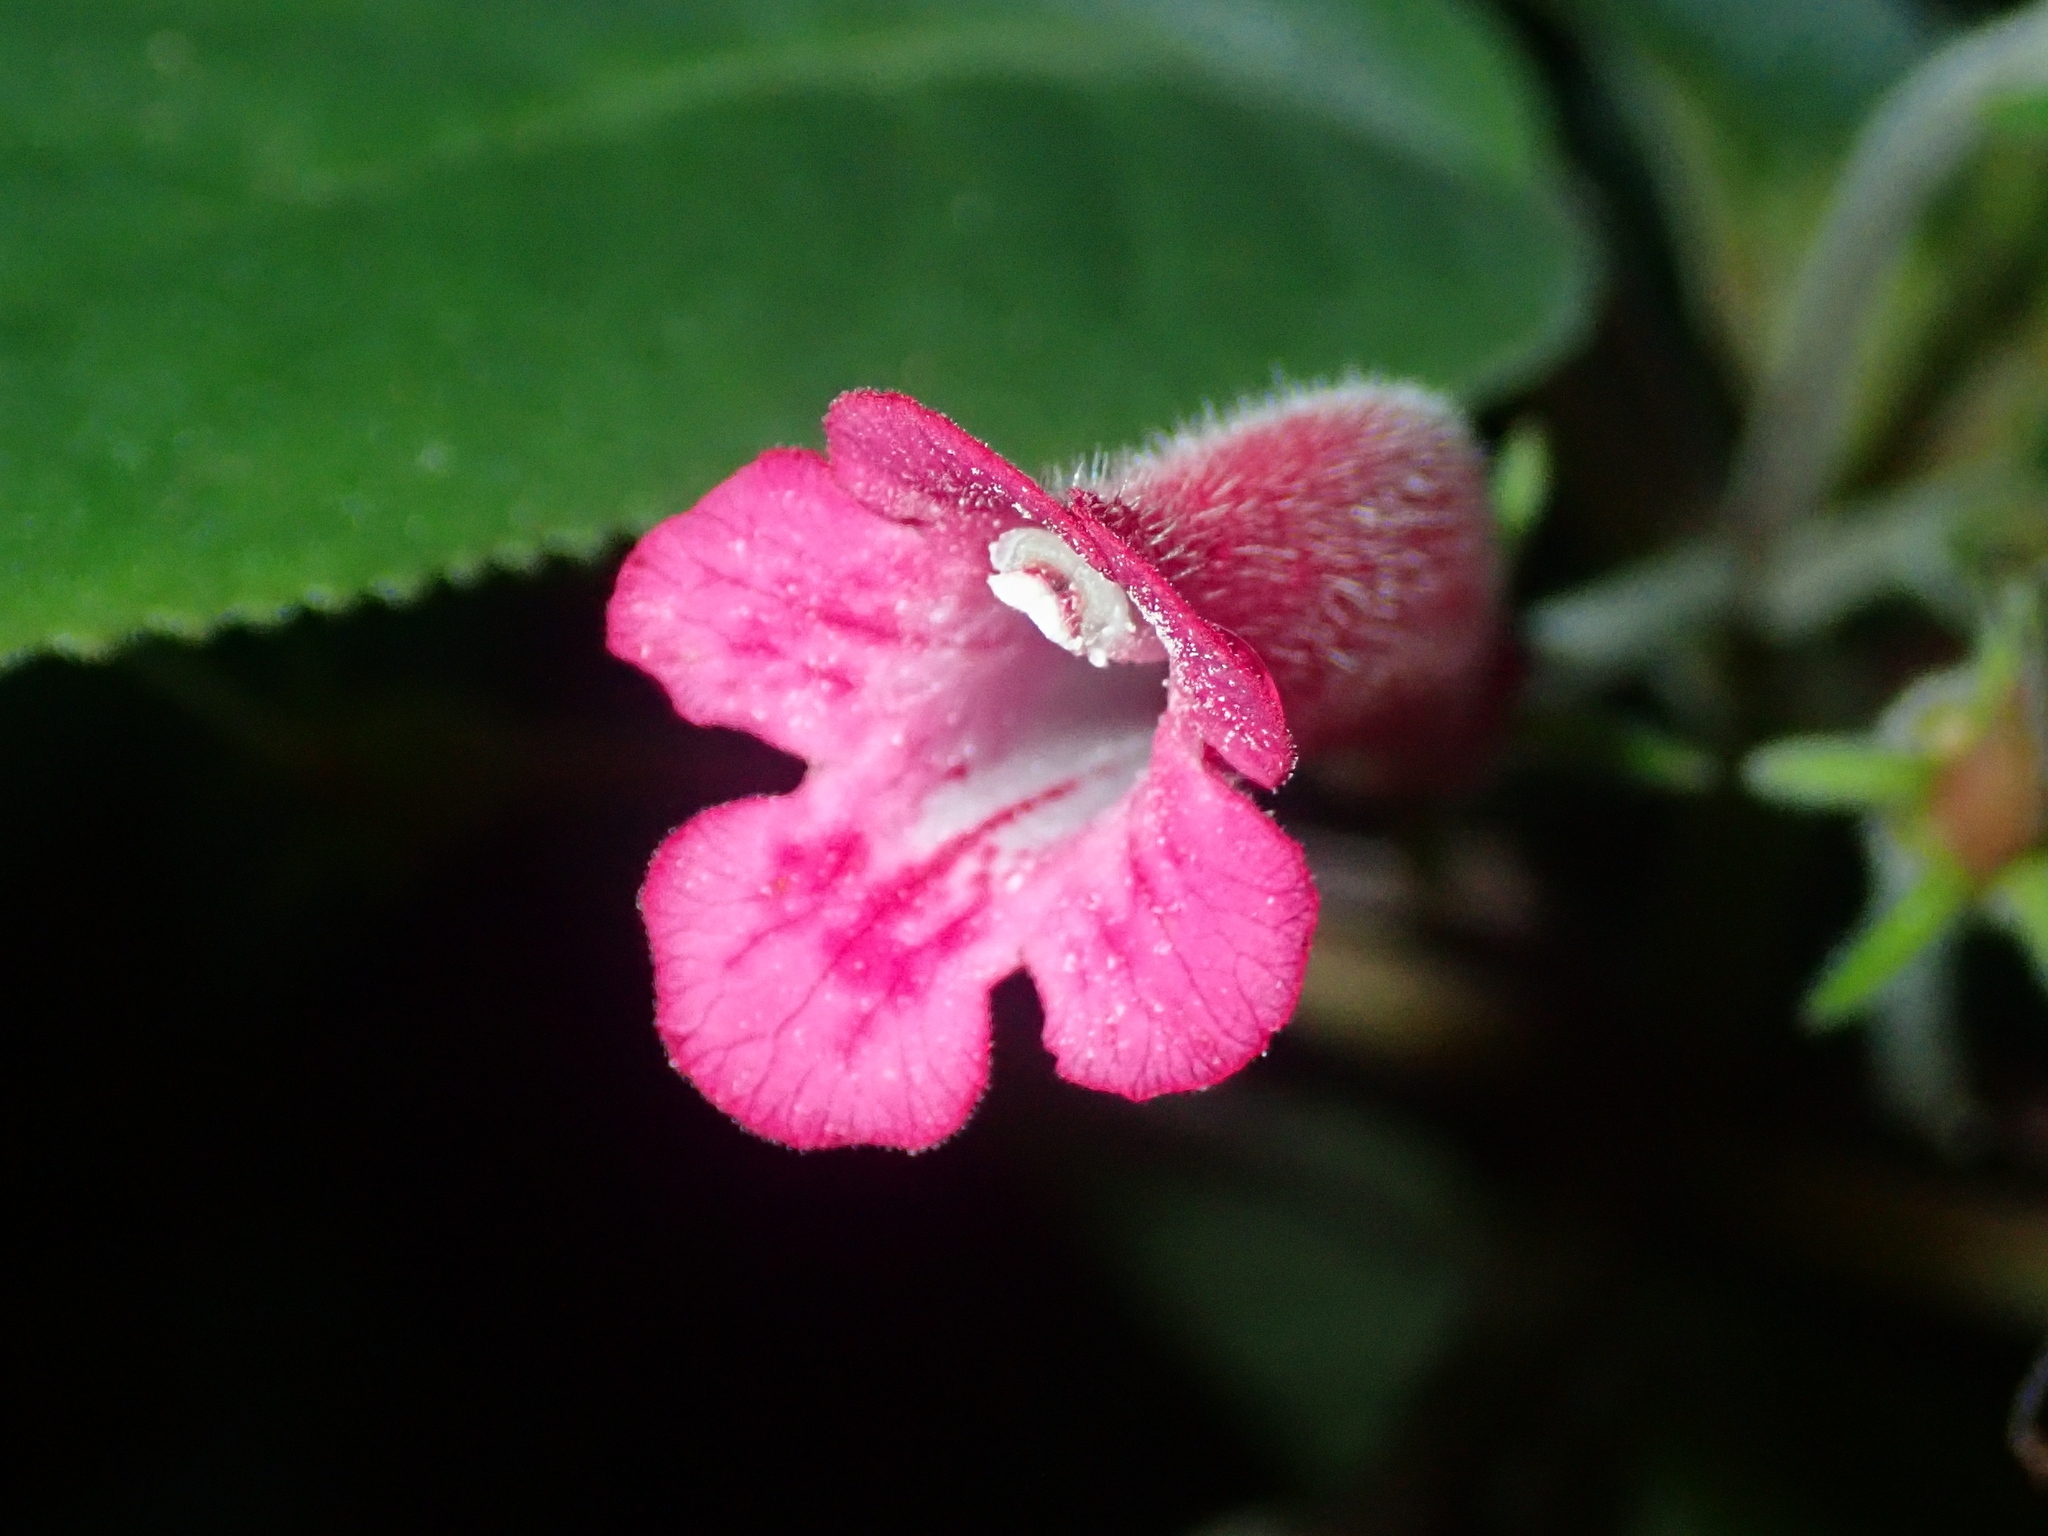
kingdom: Plantae
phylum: Tracheophyta
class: Magnoliopsida
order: Lamiales
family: Gesneriaceae
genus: Sinningia
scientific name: Sinningia reitzii
